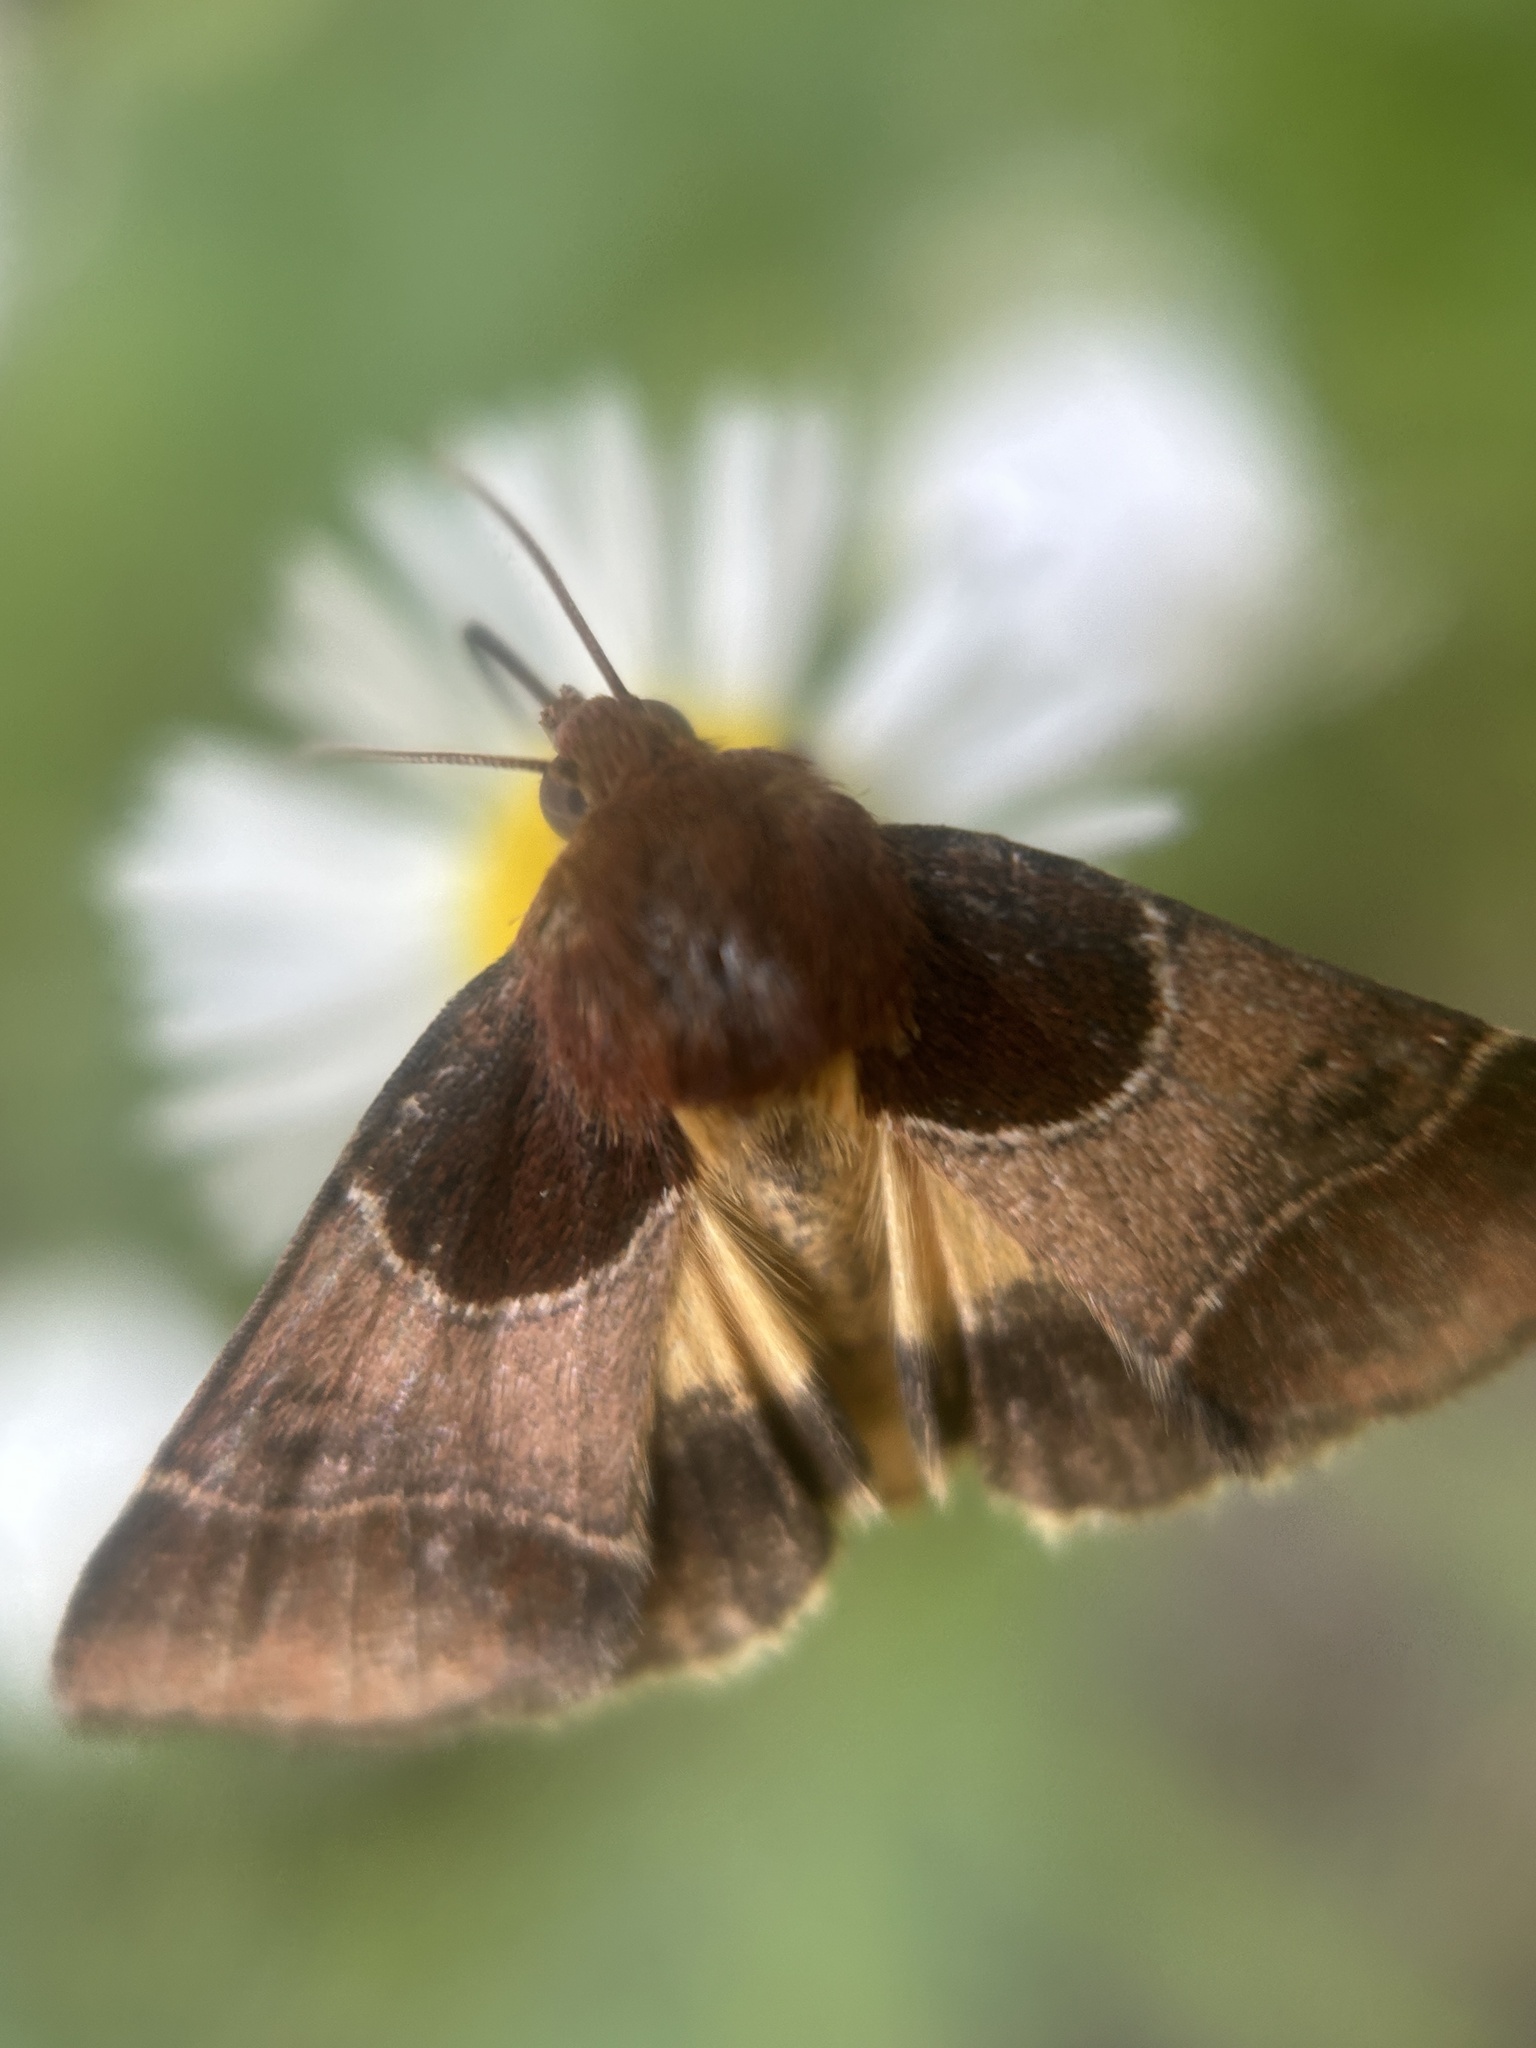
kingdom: Animalia
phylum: Arthropoda
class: Insecta
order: Lepidoptera
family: Noctuidae
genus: Schinia
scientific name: Schinia arcigera
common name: Arcigera flower moth
